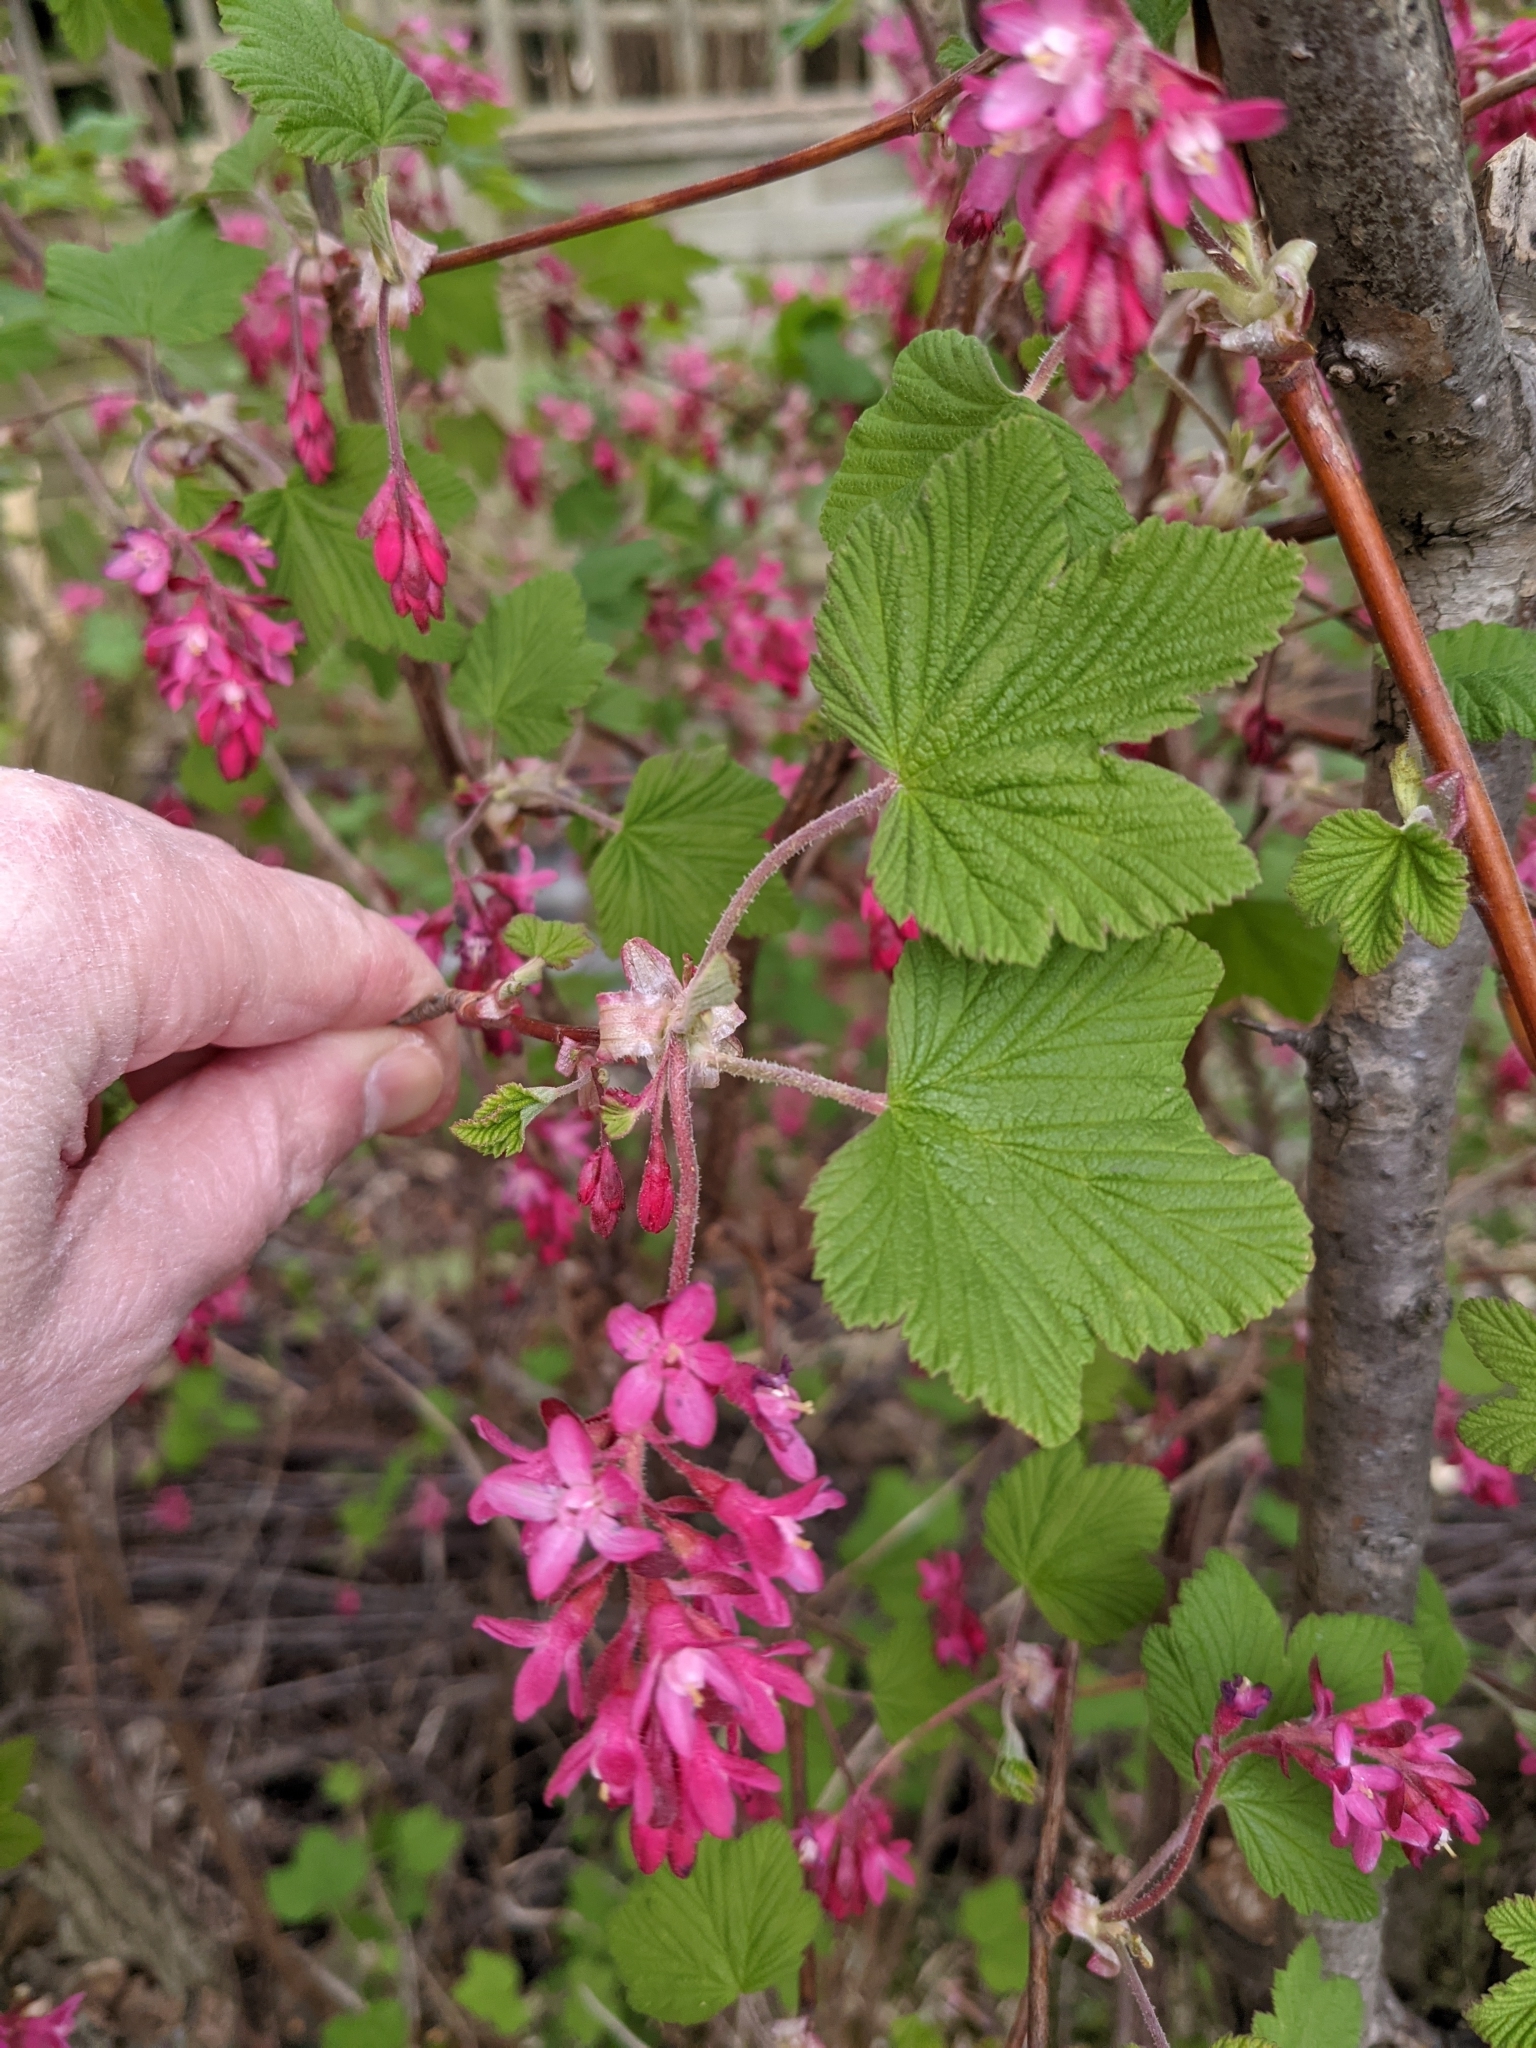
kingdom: Plantae
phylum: Tracheophyta
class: Magnoliopsida
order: Saxifragales
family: Grossulariaceae
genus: Ribes
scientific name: Ribes sanguineum
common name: Flowering currant
